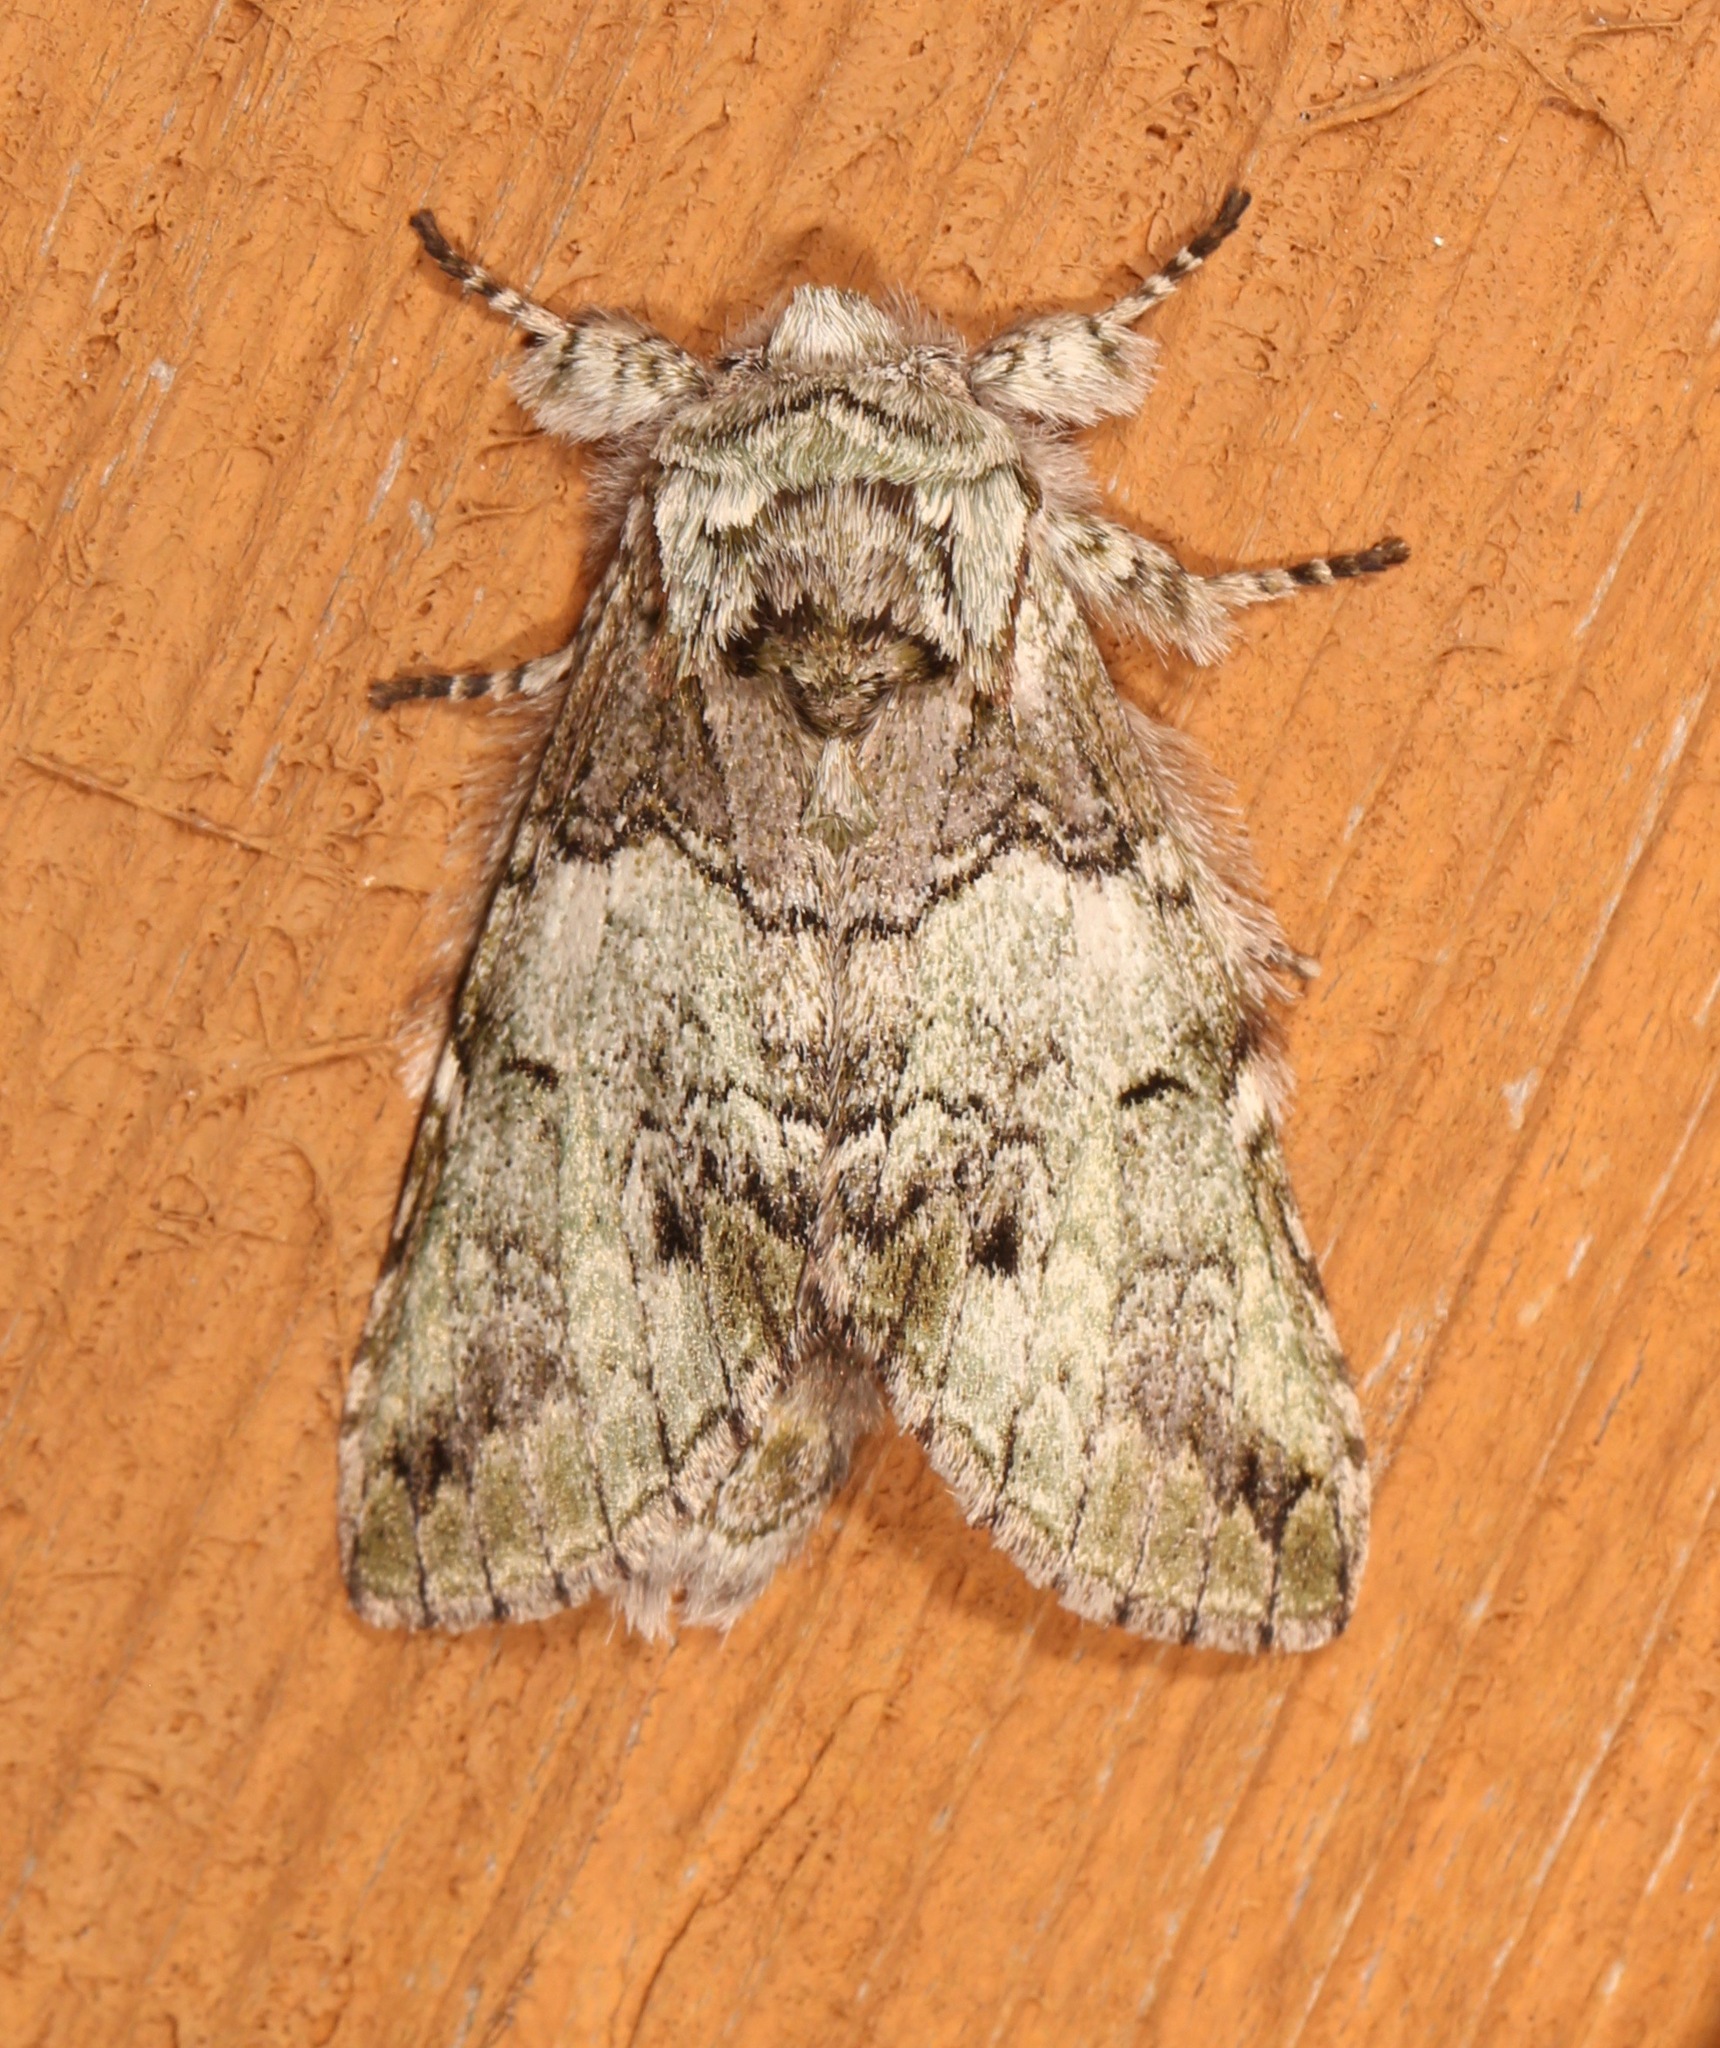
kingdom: Animalia
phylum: Arthropoda
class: Insecta
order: Lepidoptera
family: Notodontidae
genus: Macrurocampa
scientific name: Macrurocampa marthesia
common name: Mottled prominent
